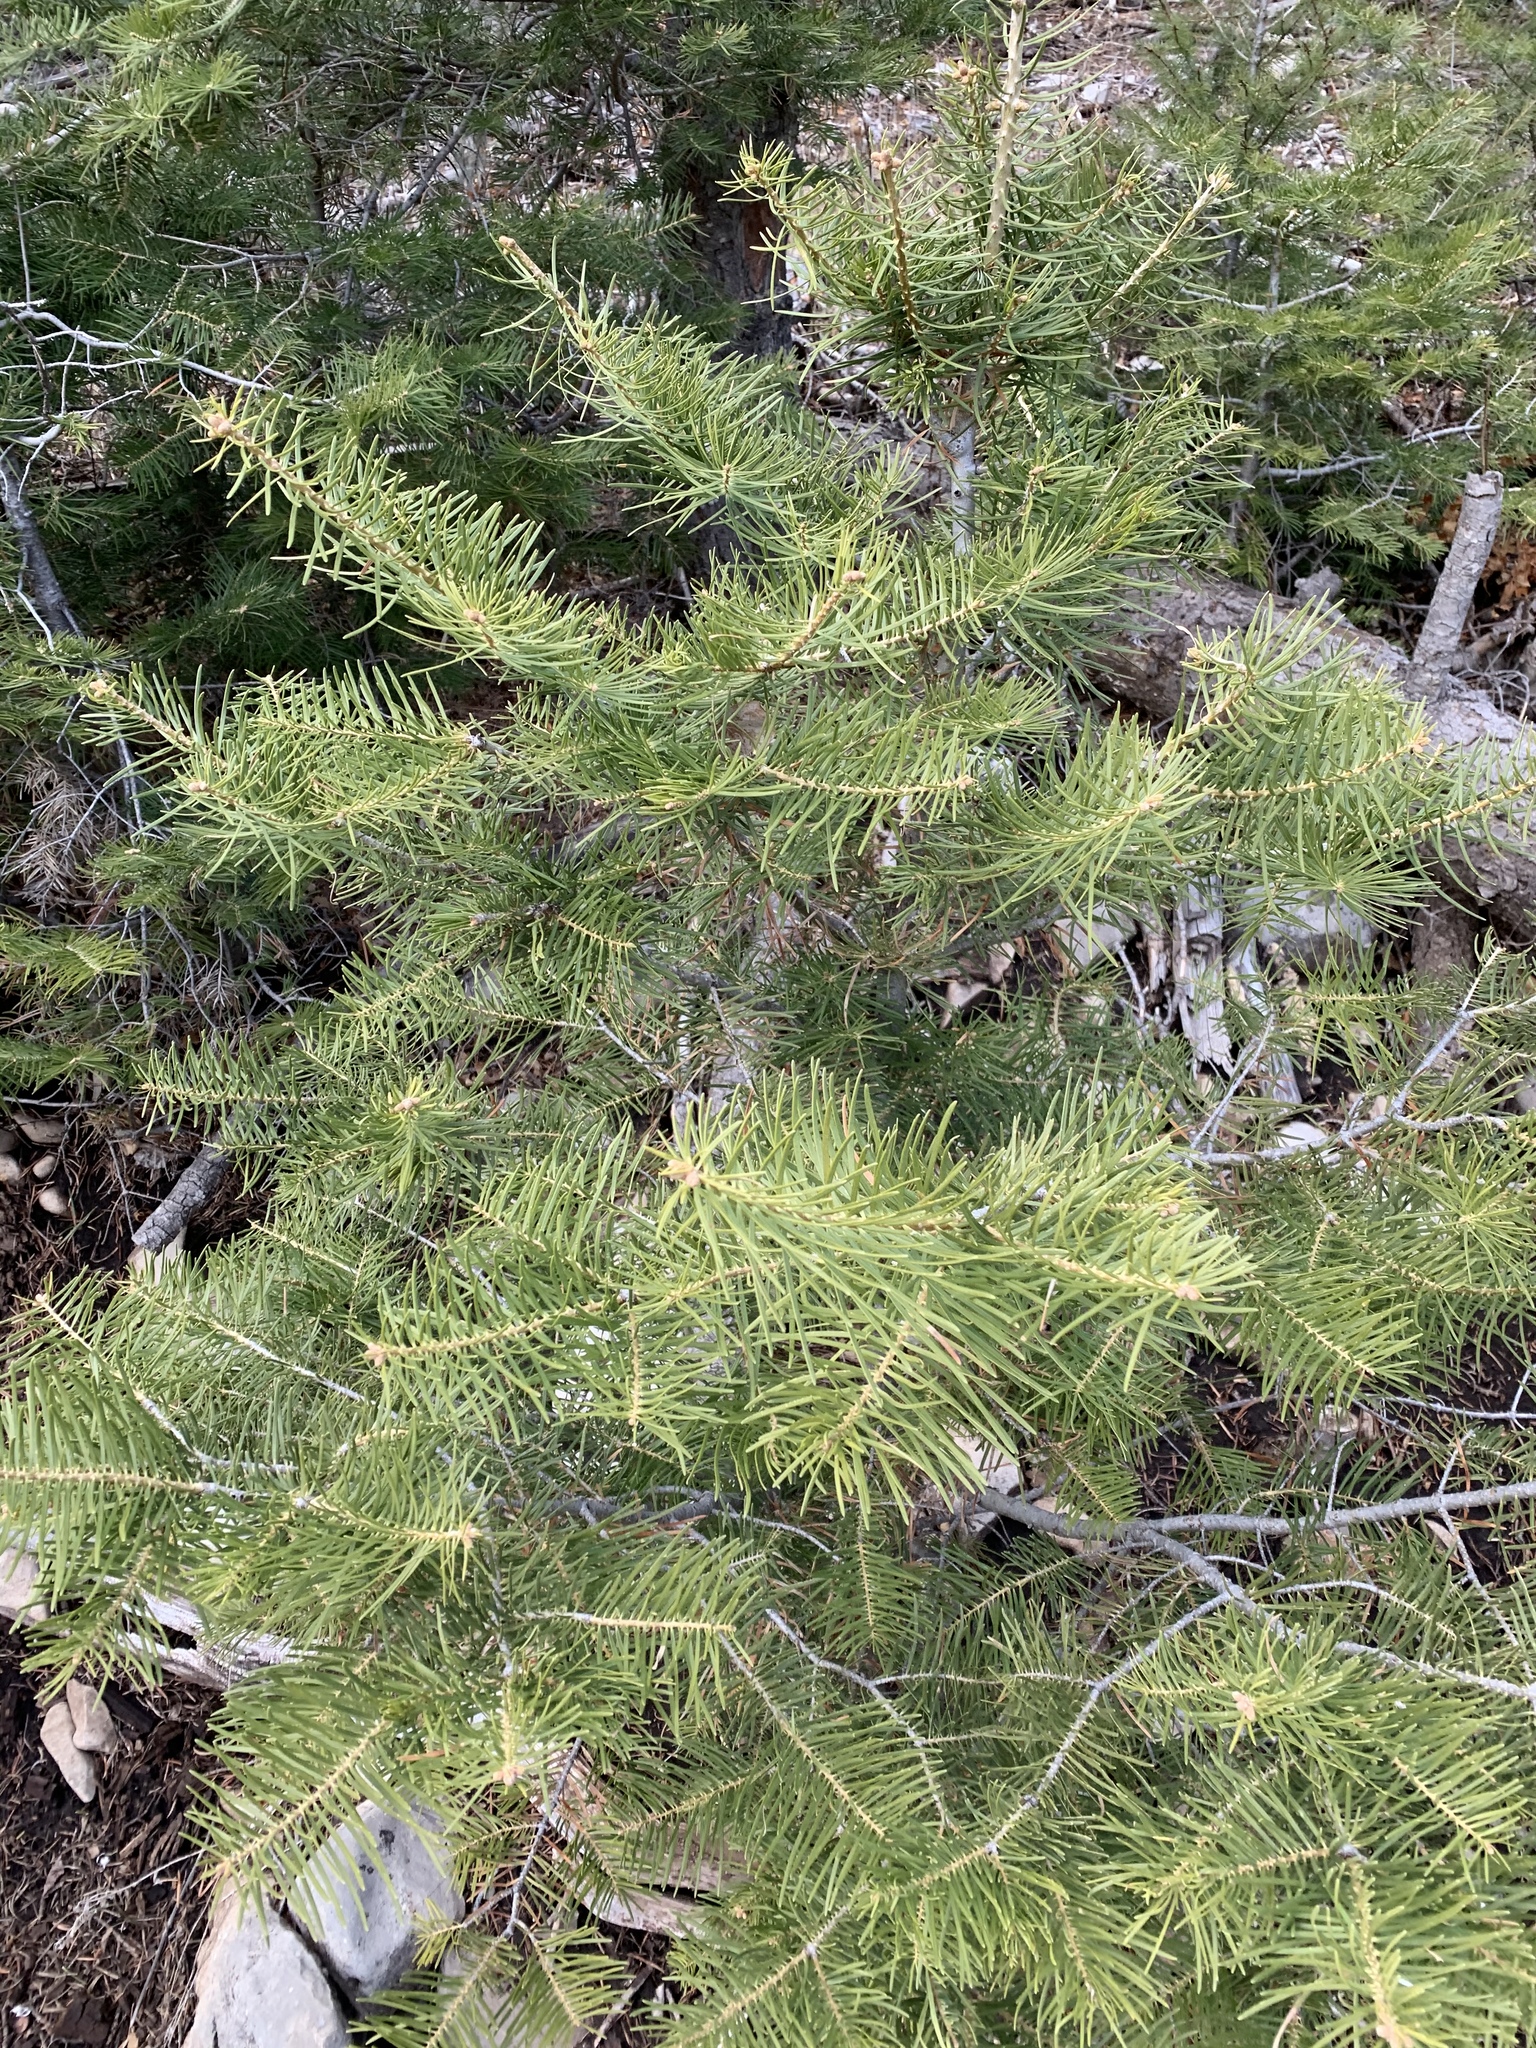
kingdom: Plantae
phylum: Tracheophyta
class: Pinopsida
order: Pinales
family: Pinaceae
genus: Abies
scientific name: Abies concolor
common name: Colorado fir
